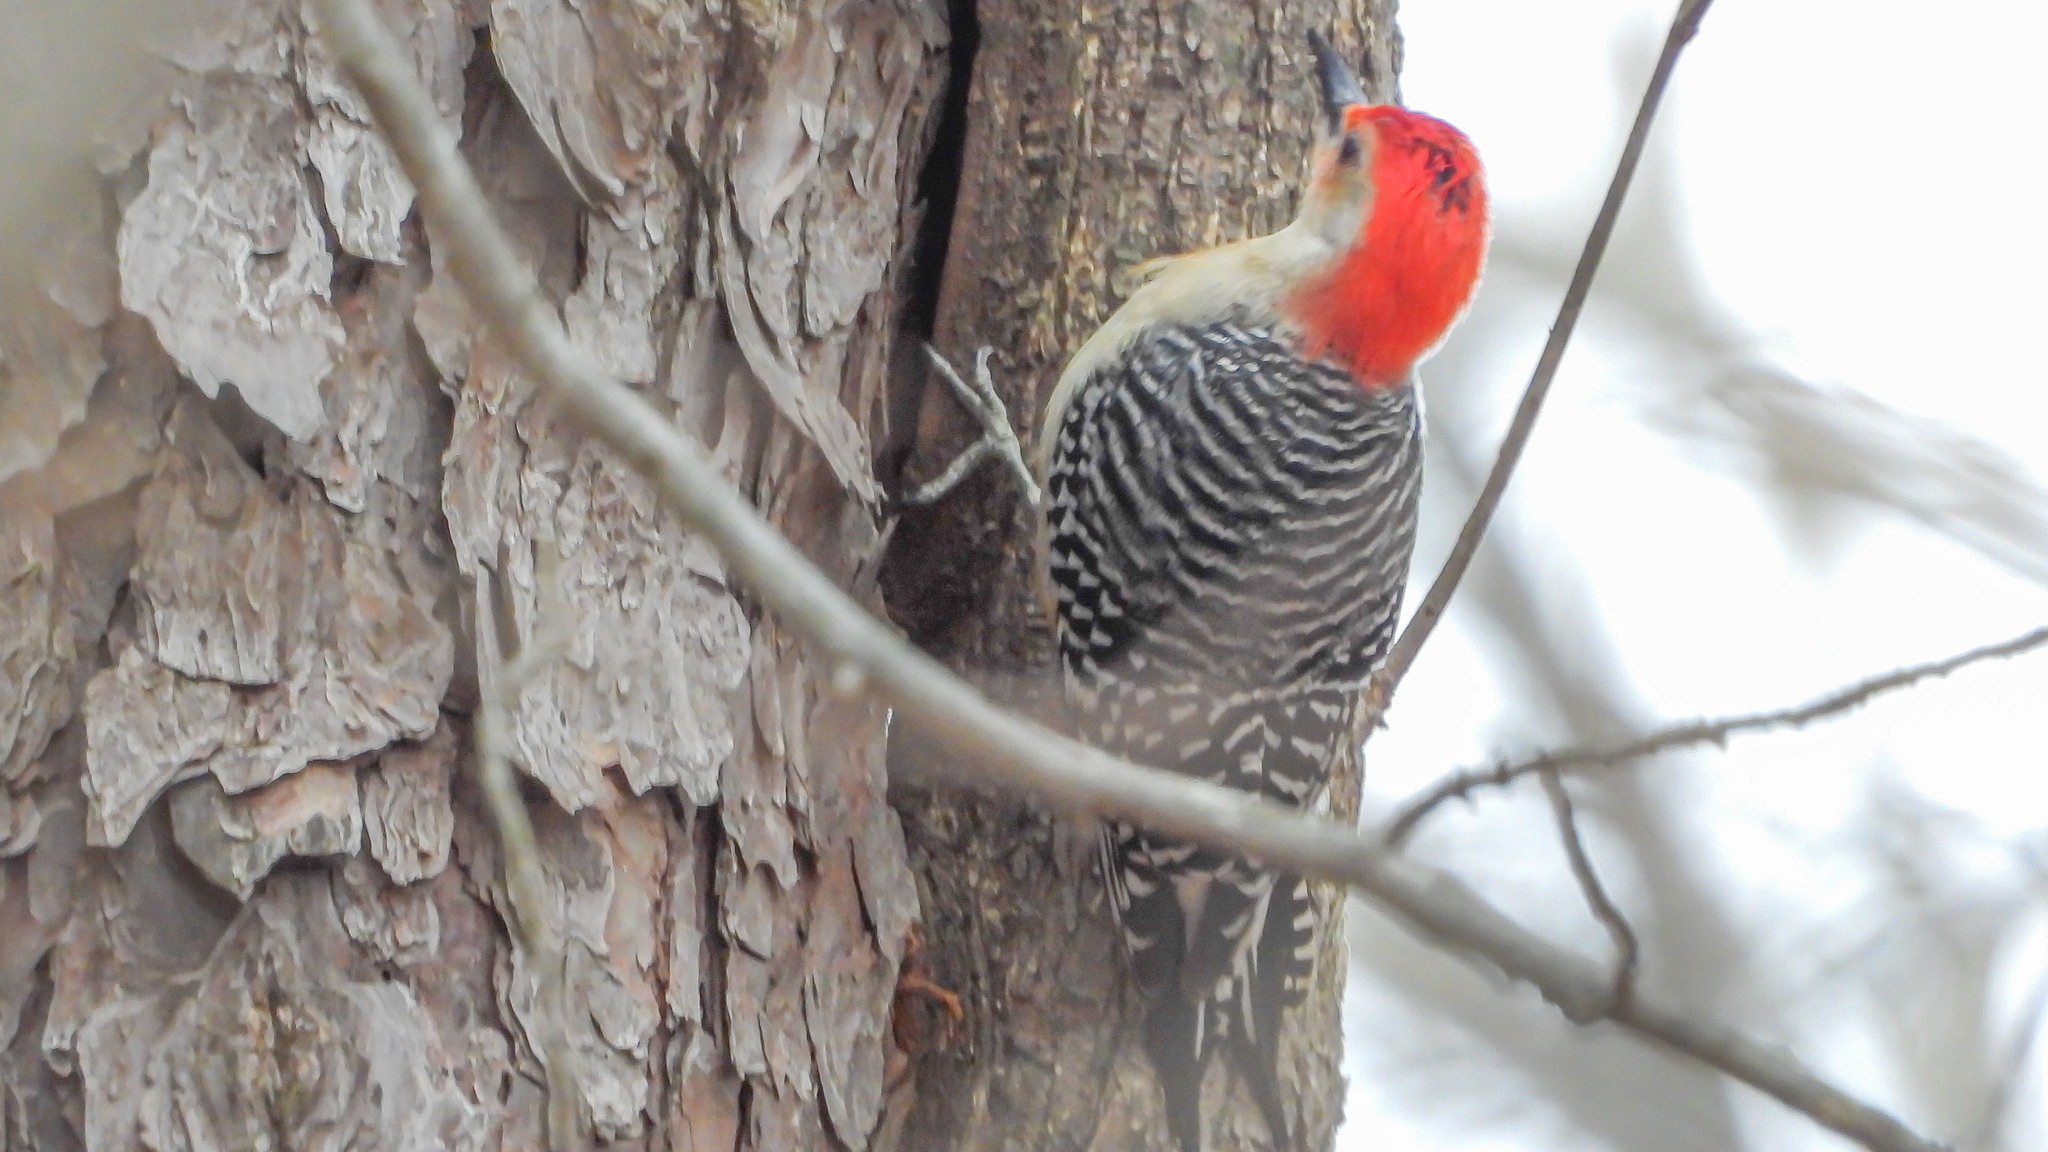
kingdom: Animalia
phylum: Chordata
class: Aves
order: Piciformes
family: Picidae
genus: Melanerpes
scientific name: Melanerpes carolinus
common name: Red-bellied woodpecker
